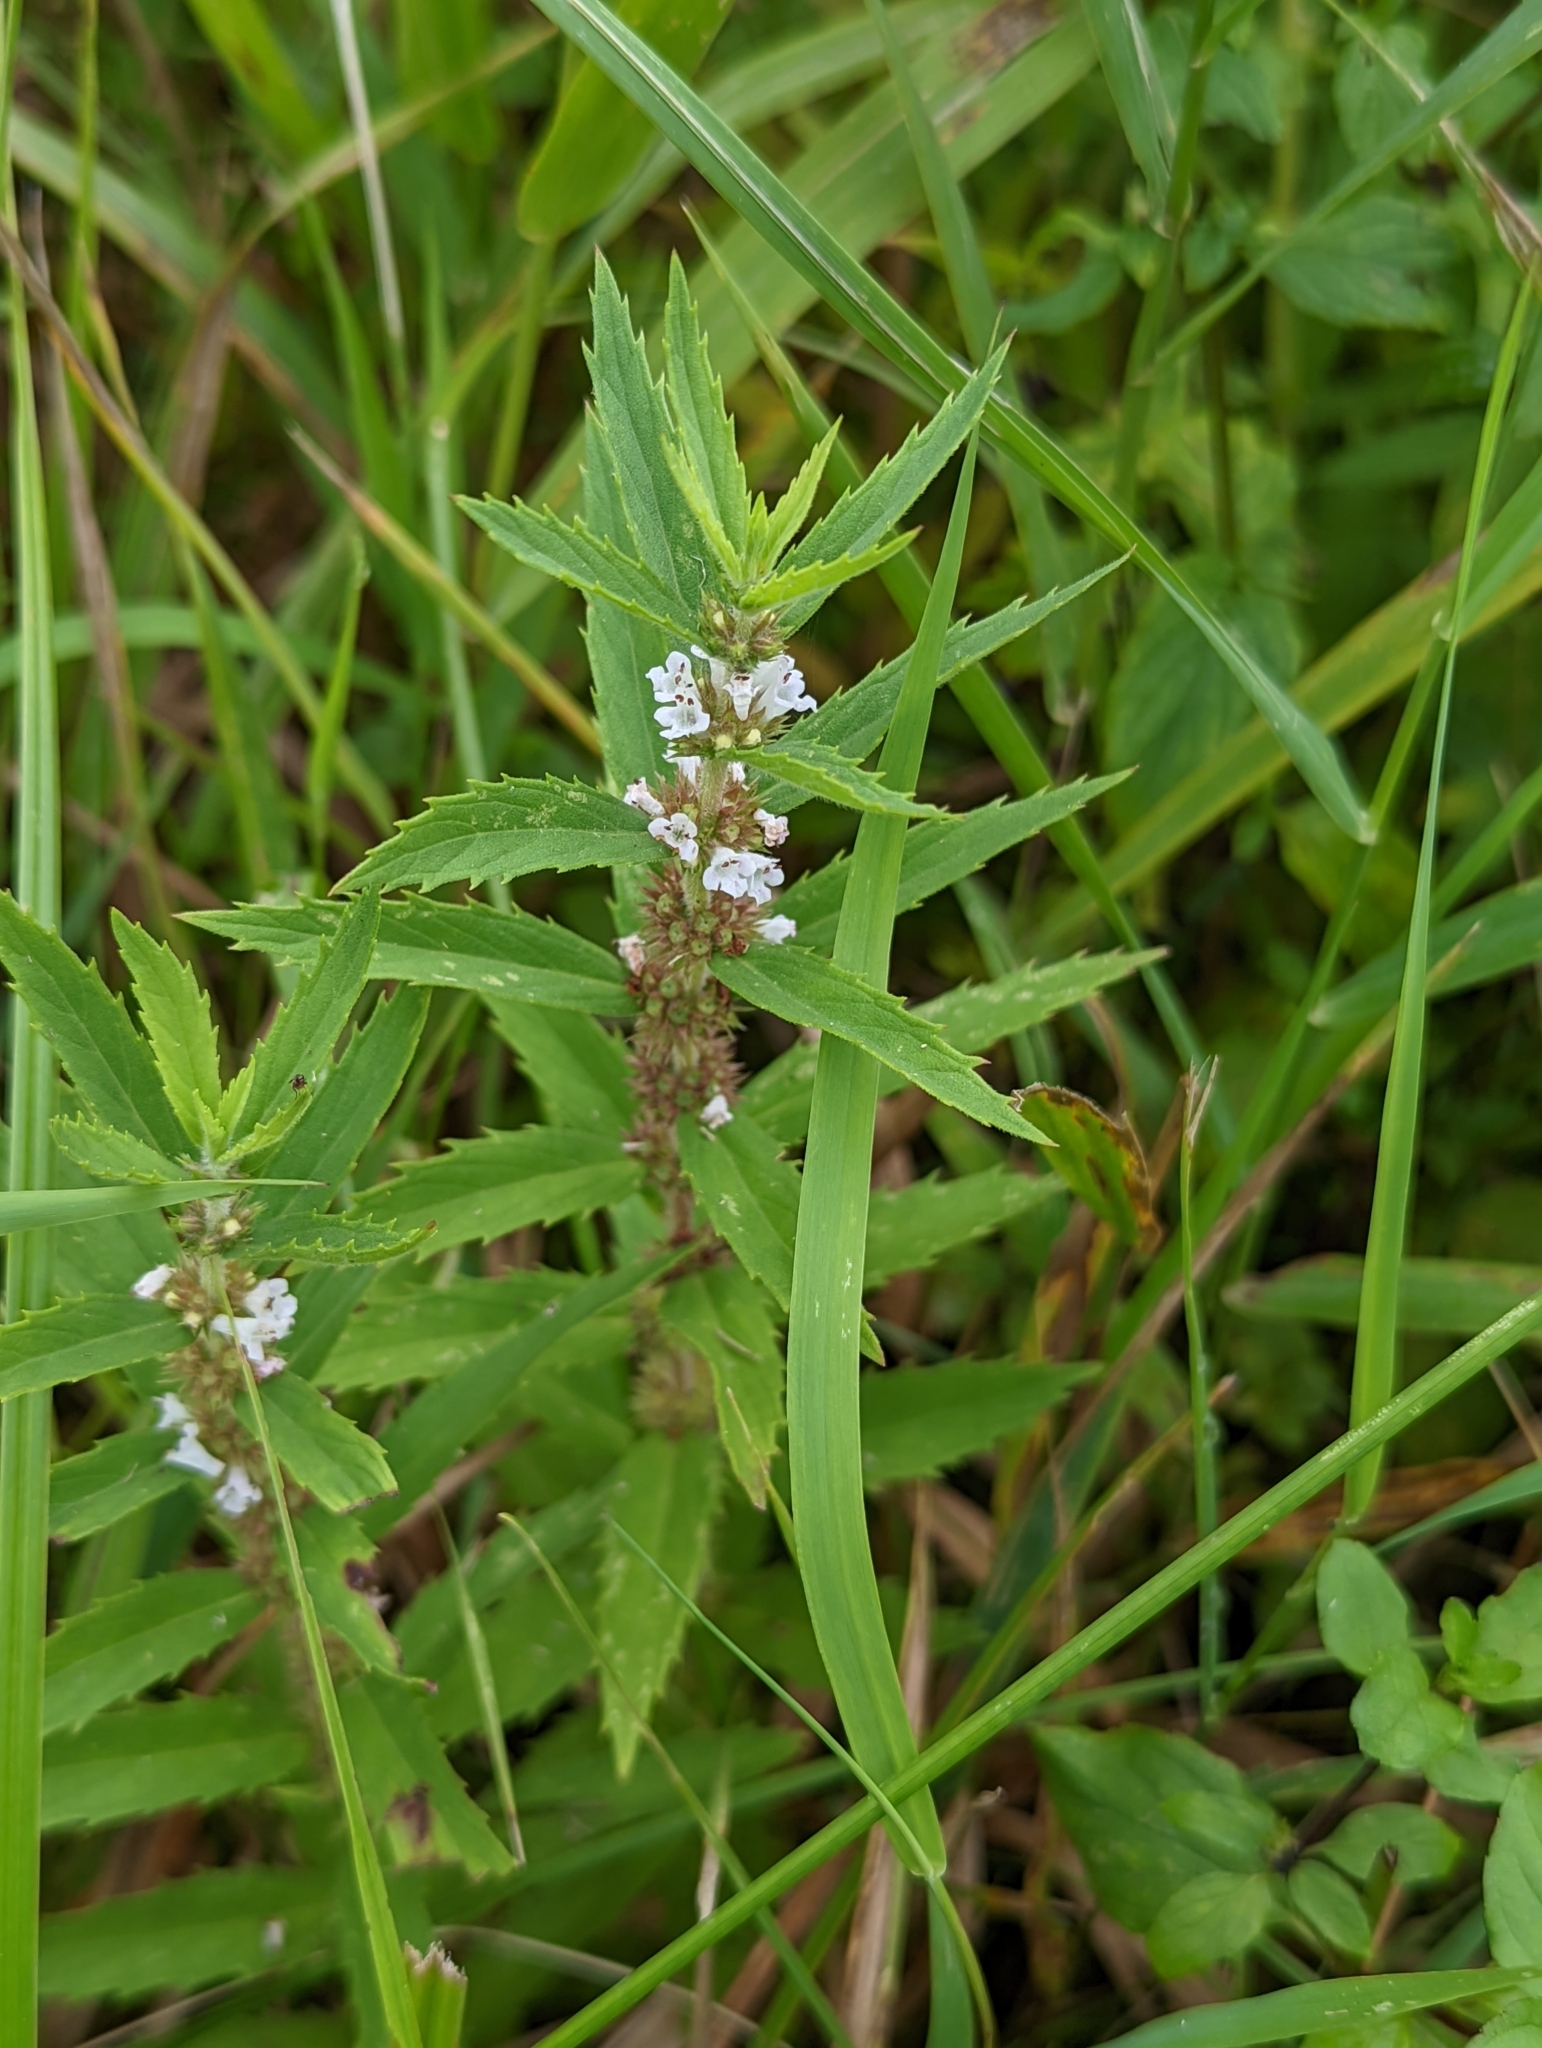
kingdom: Plantae
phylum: Tracheophyta
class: Magnoliopsida
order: Lamiales
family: Lamiaceae
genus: Lycopus
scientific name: Lycopus asper
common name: Rough water-horehound
